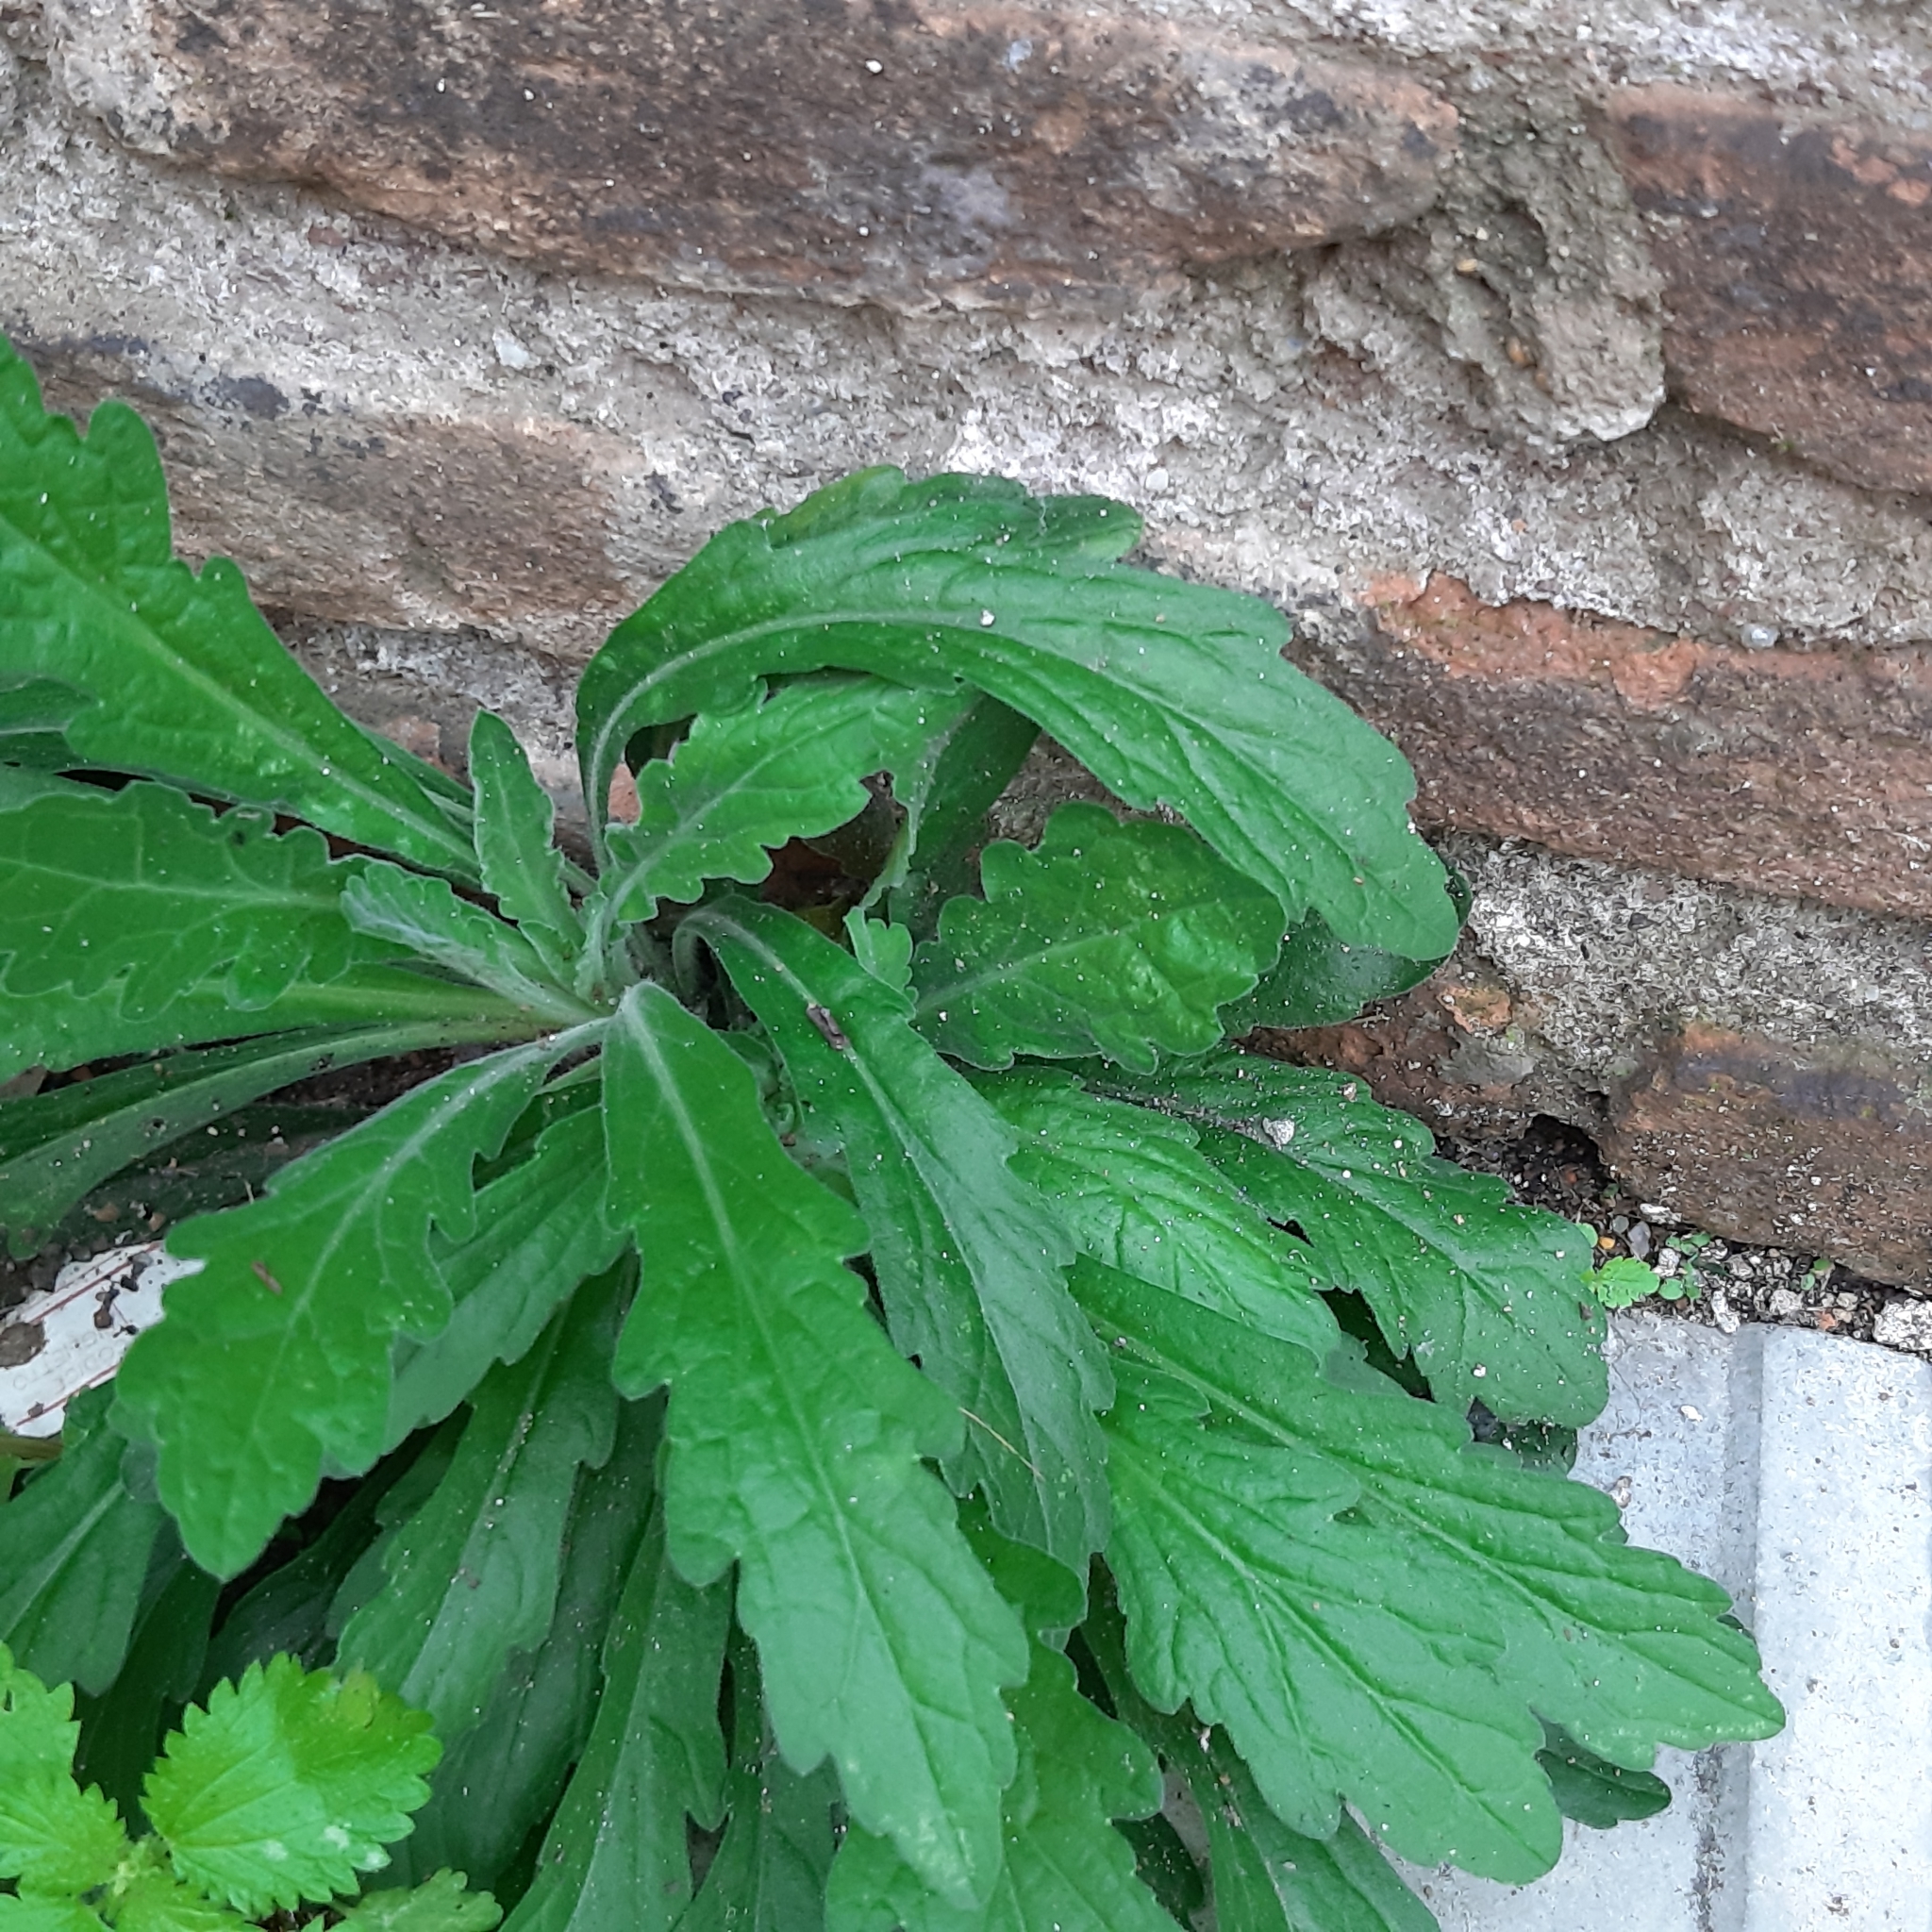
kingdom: Plantae
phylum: Tracheophyta
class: Magnoliopsida
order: Asterales
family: Asteraceae
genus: Erigeron
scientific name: Erigeron sumatrensis
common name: Daisy
